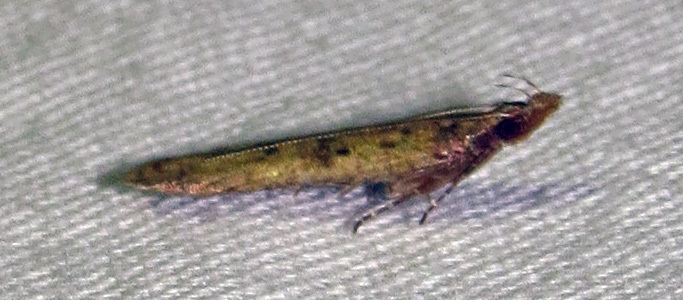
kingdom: Animalia
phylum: Arthropoda
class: Insecta
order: Lepidoptera
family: Gelechiidae
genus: Dichomeris
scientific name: Dichomeris ligulella
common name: Moth
